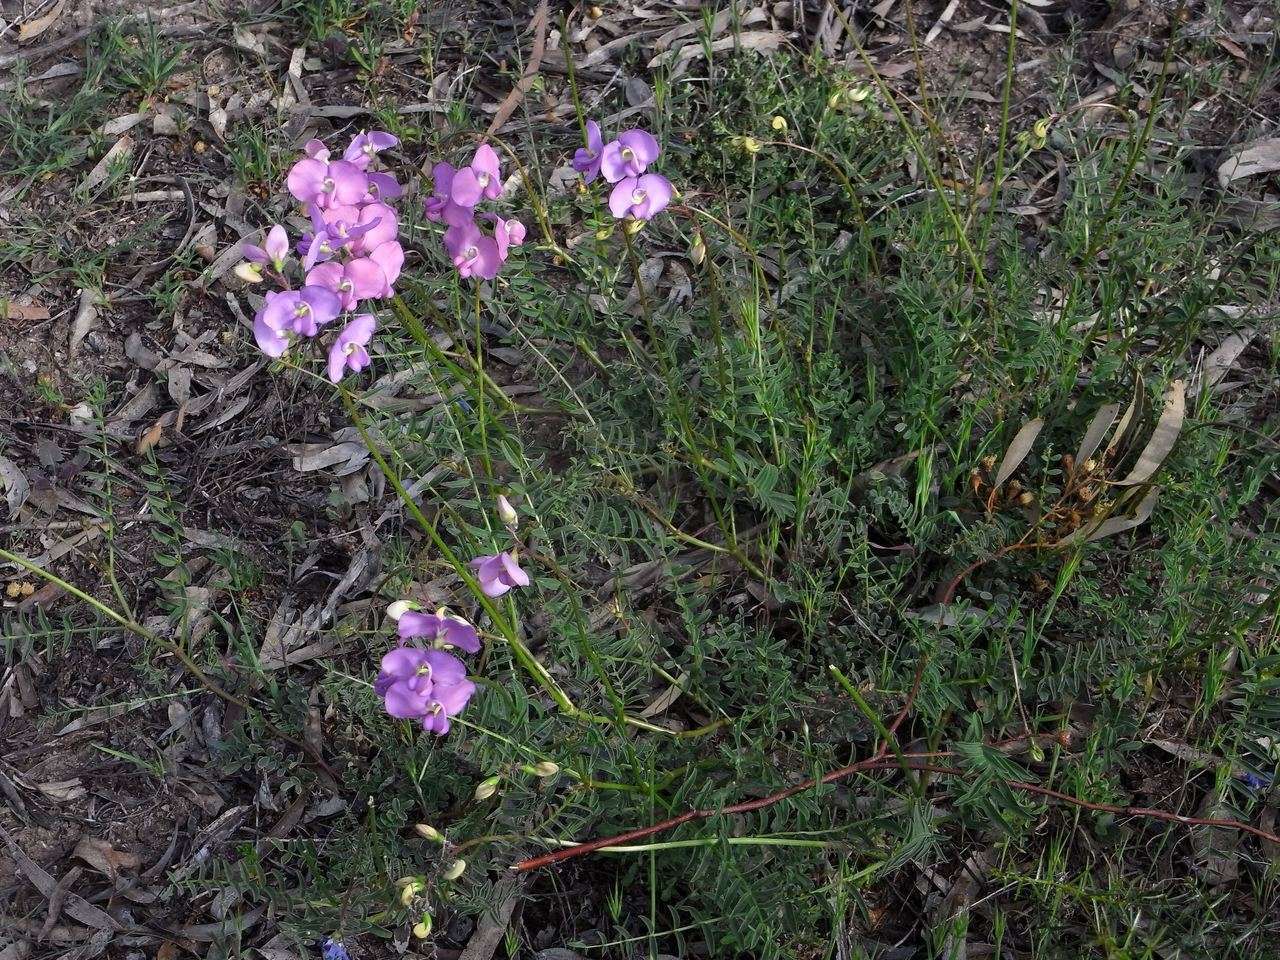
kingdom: Plantae
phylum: Tracheophyta
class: Magnoliopsida
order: Fabales
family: Fabaceae
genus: Swainsona
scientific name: Swainsona procumbens
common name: Broughton-pea
